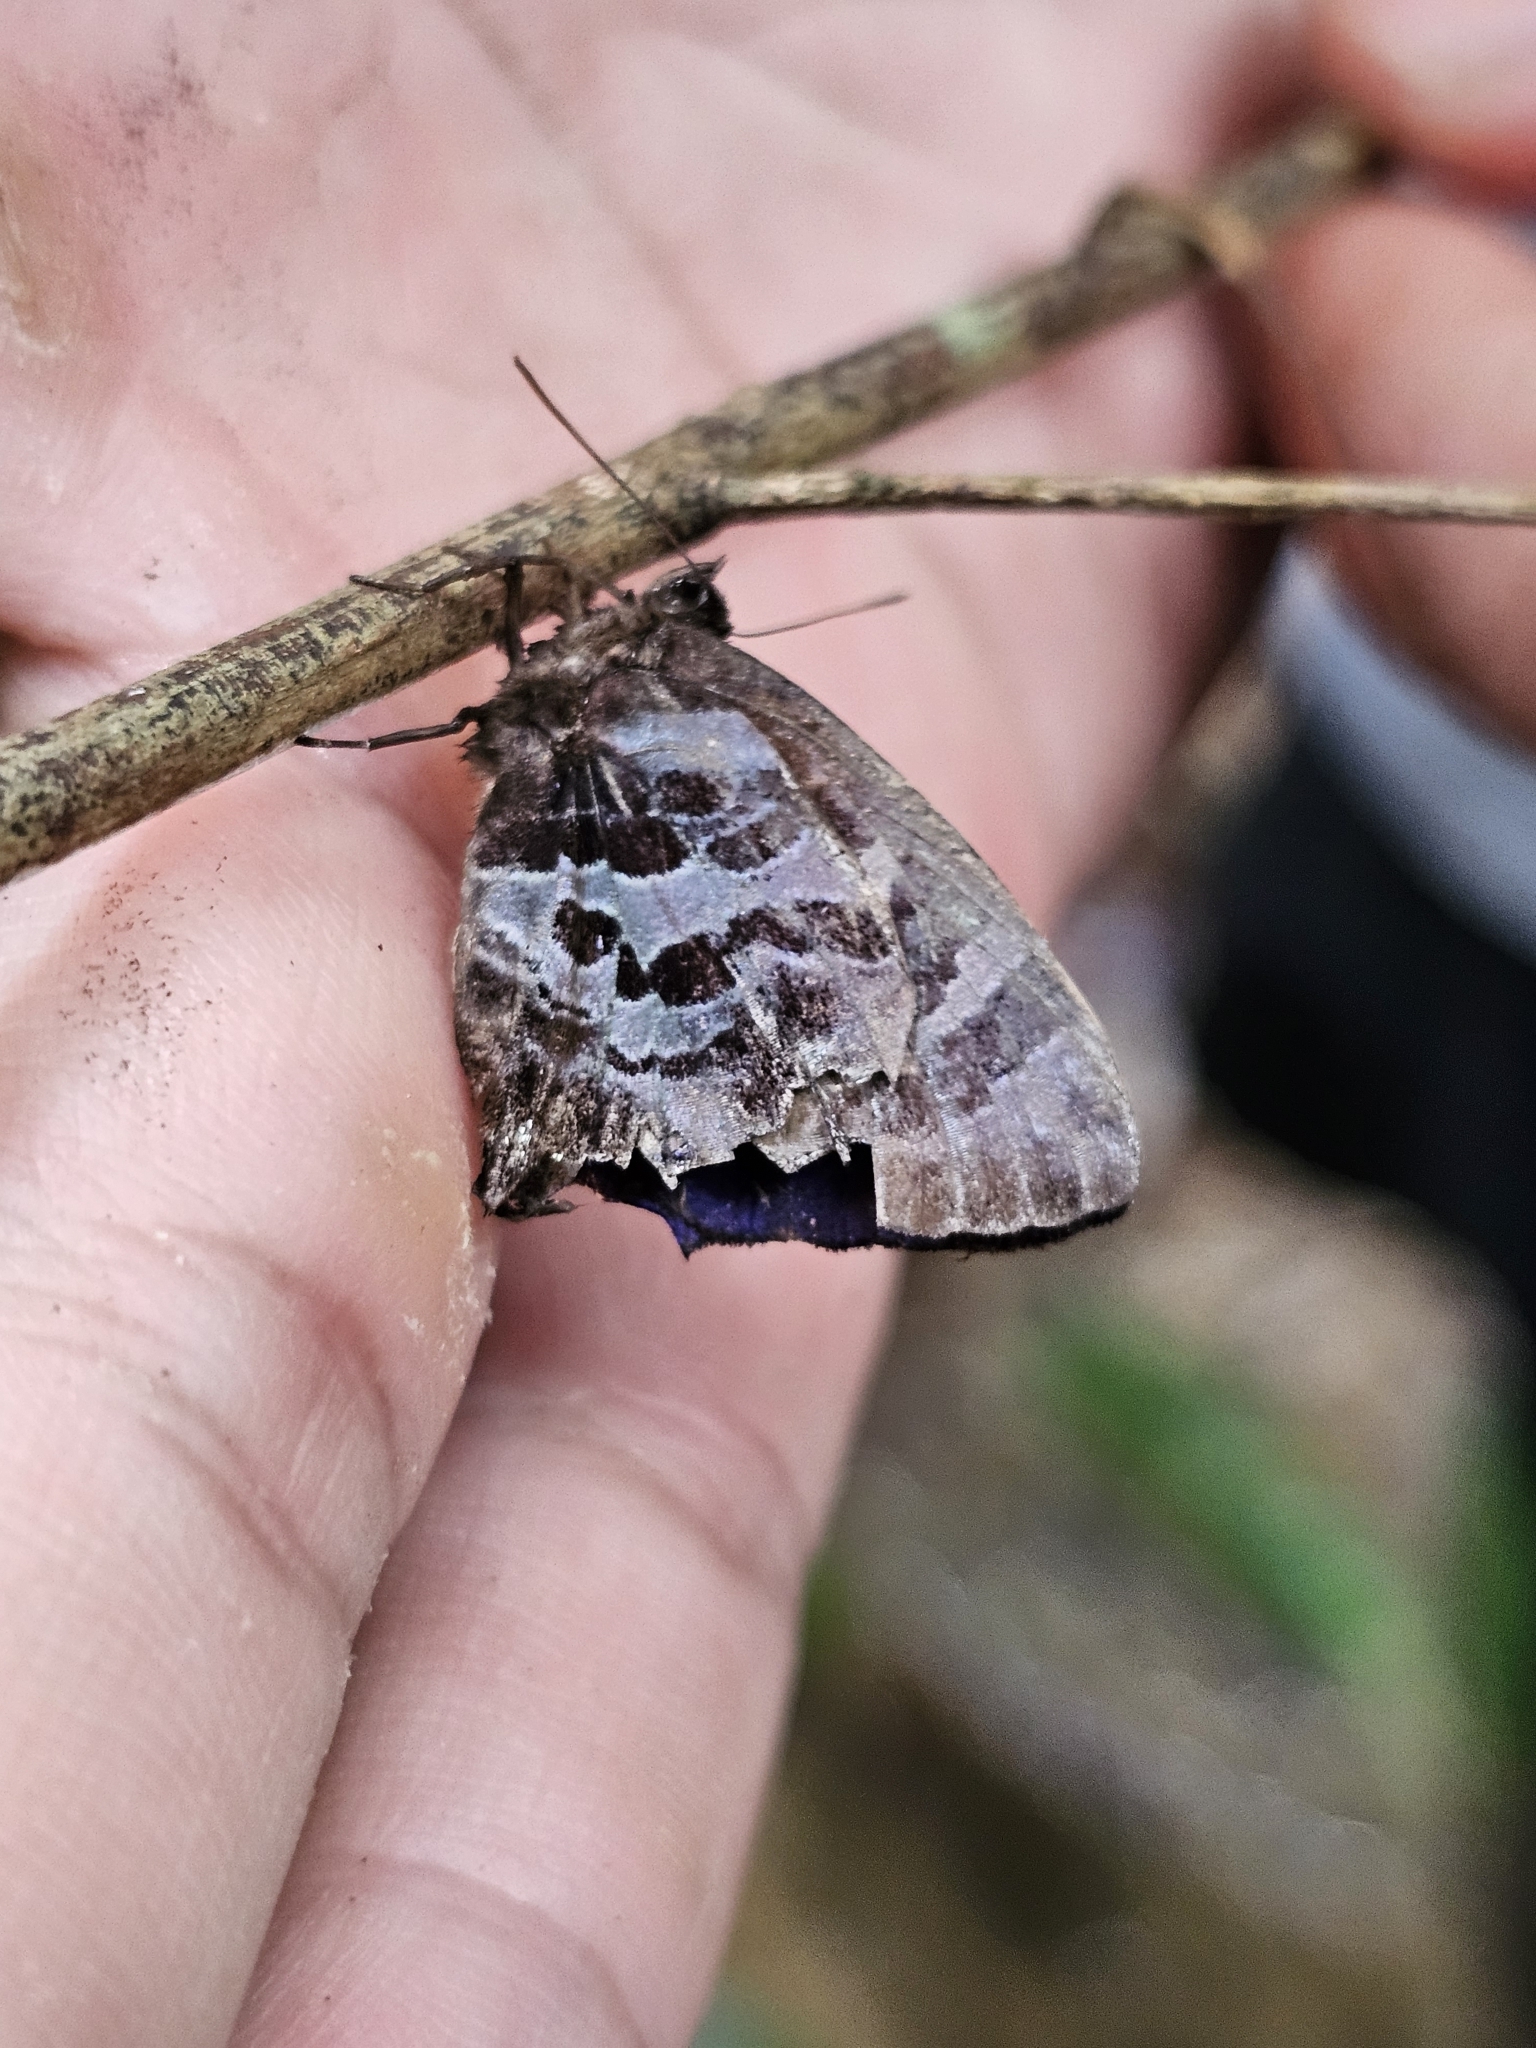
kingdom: Animalia
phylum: Arthropoda
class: Insecta
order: Lepidoptera
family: Lycaenidae
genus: Flos
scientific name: Flos
